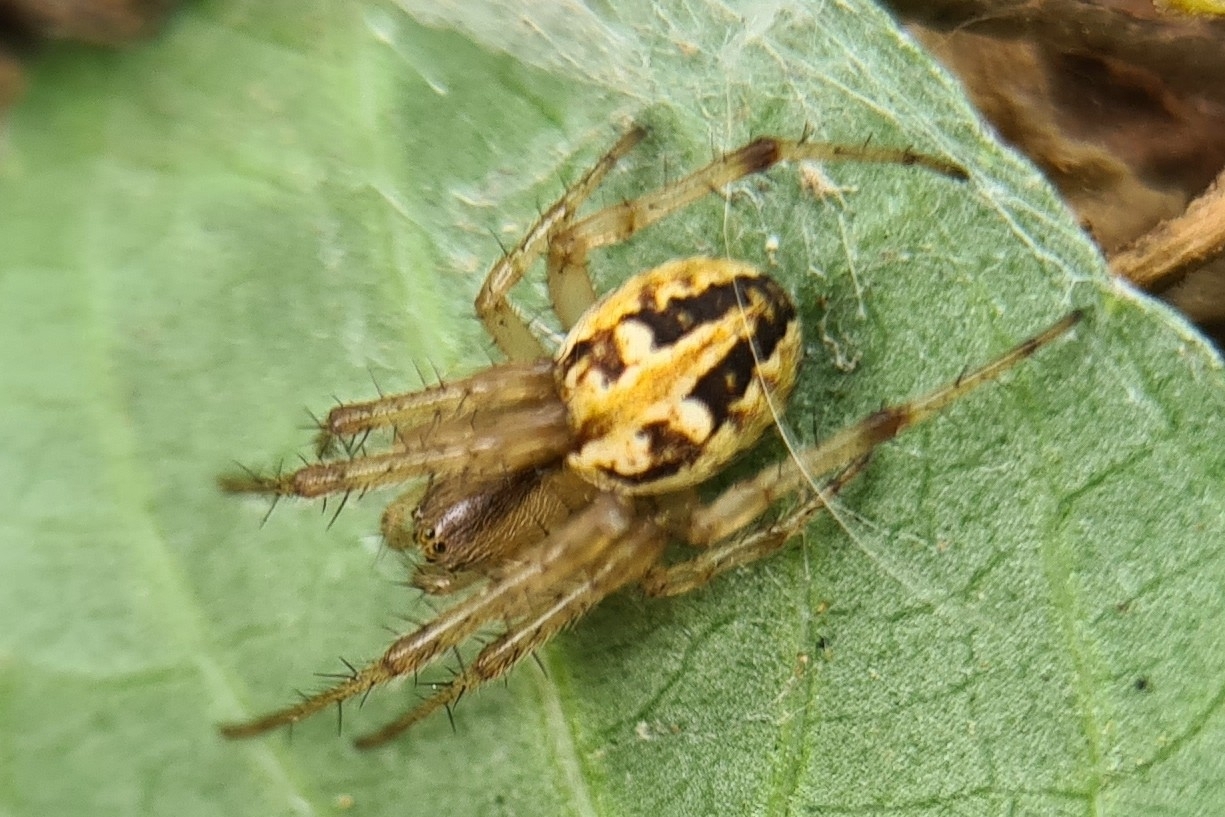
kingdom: Animalia
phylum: Arthropoda
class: Arachnida
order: Araneae
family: Araneidae
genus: Neoscona
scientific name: Neoscona theisi
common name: Spider
